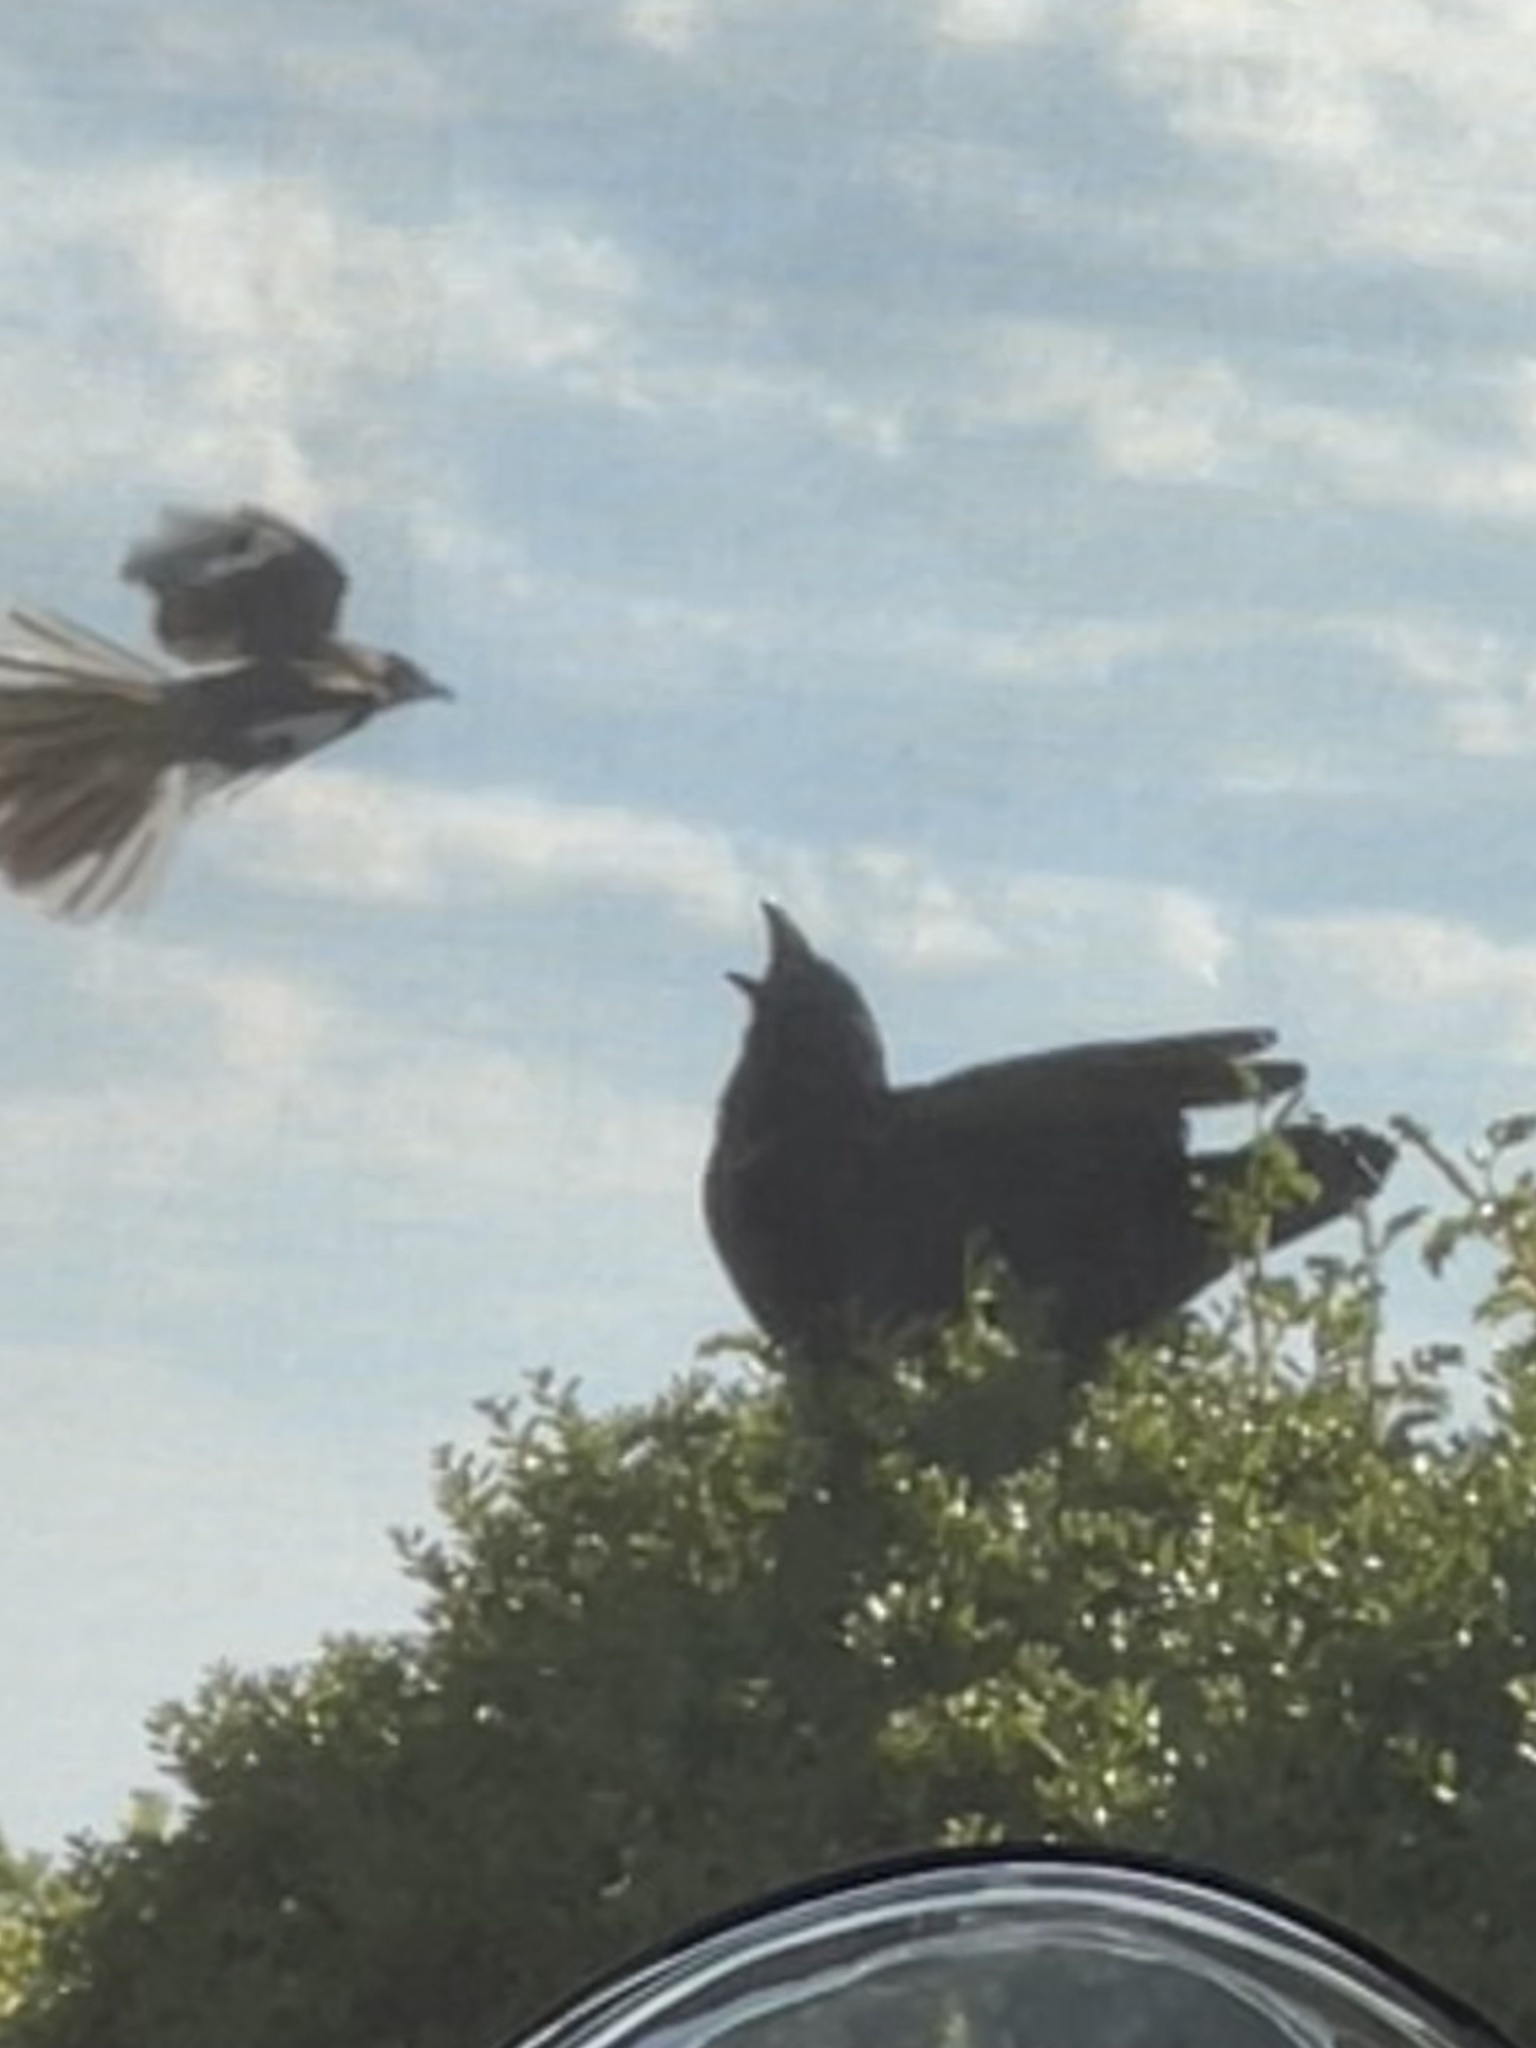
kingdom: Animalia
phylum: Chordata
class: Aves
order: Passeriformes
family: Mimidae
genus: Mimus
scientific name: Mimus polyglottos
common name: Northern mockingbird
